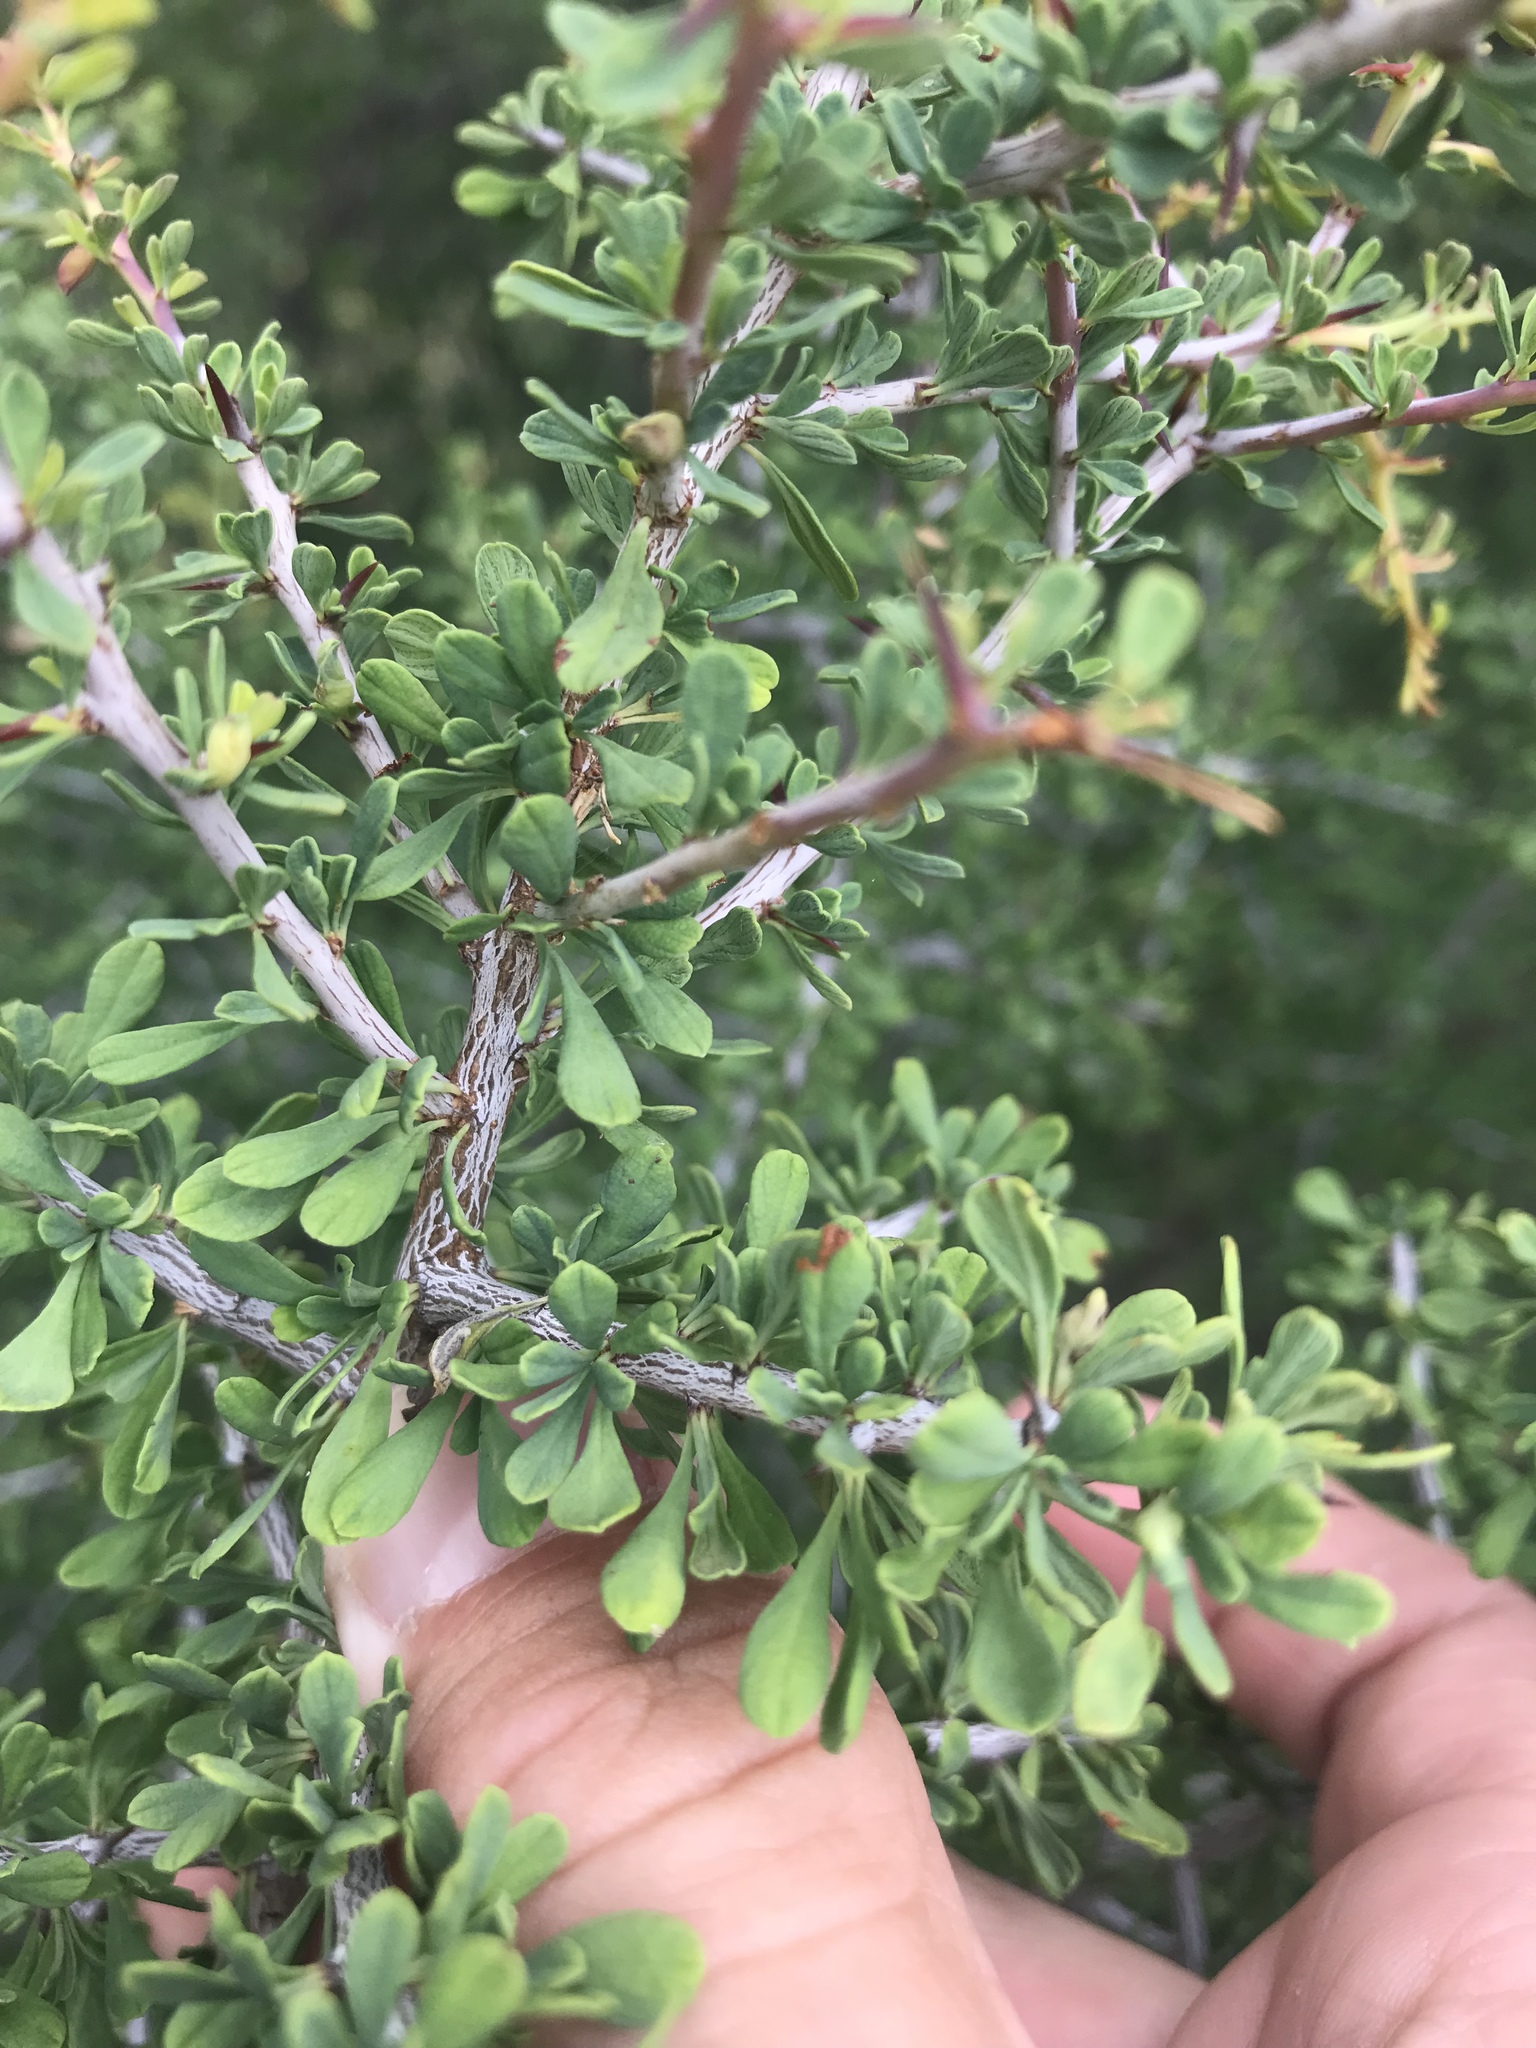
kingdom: Plantae
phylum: Tracheophyta
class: Magnoliopsida
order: Rosales
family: Rhamnaceae
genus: Condalia
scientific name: Condalia spathulata
